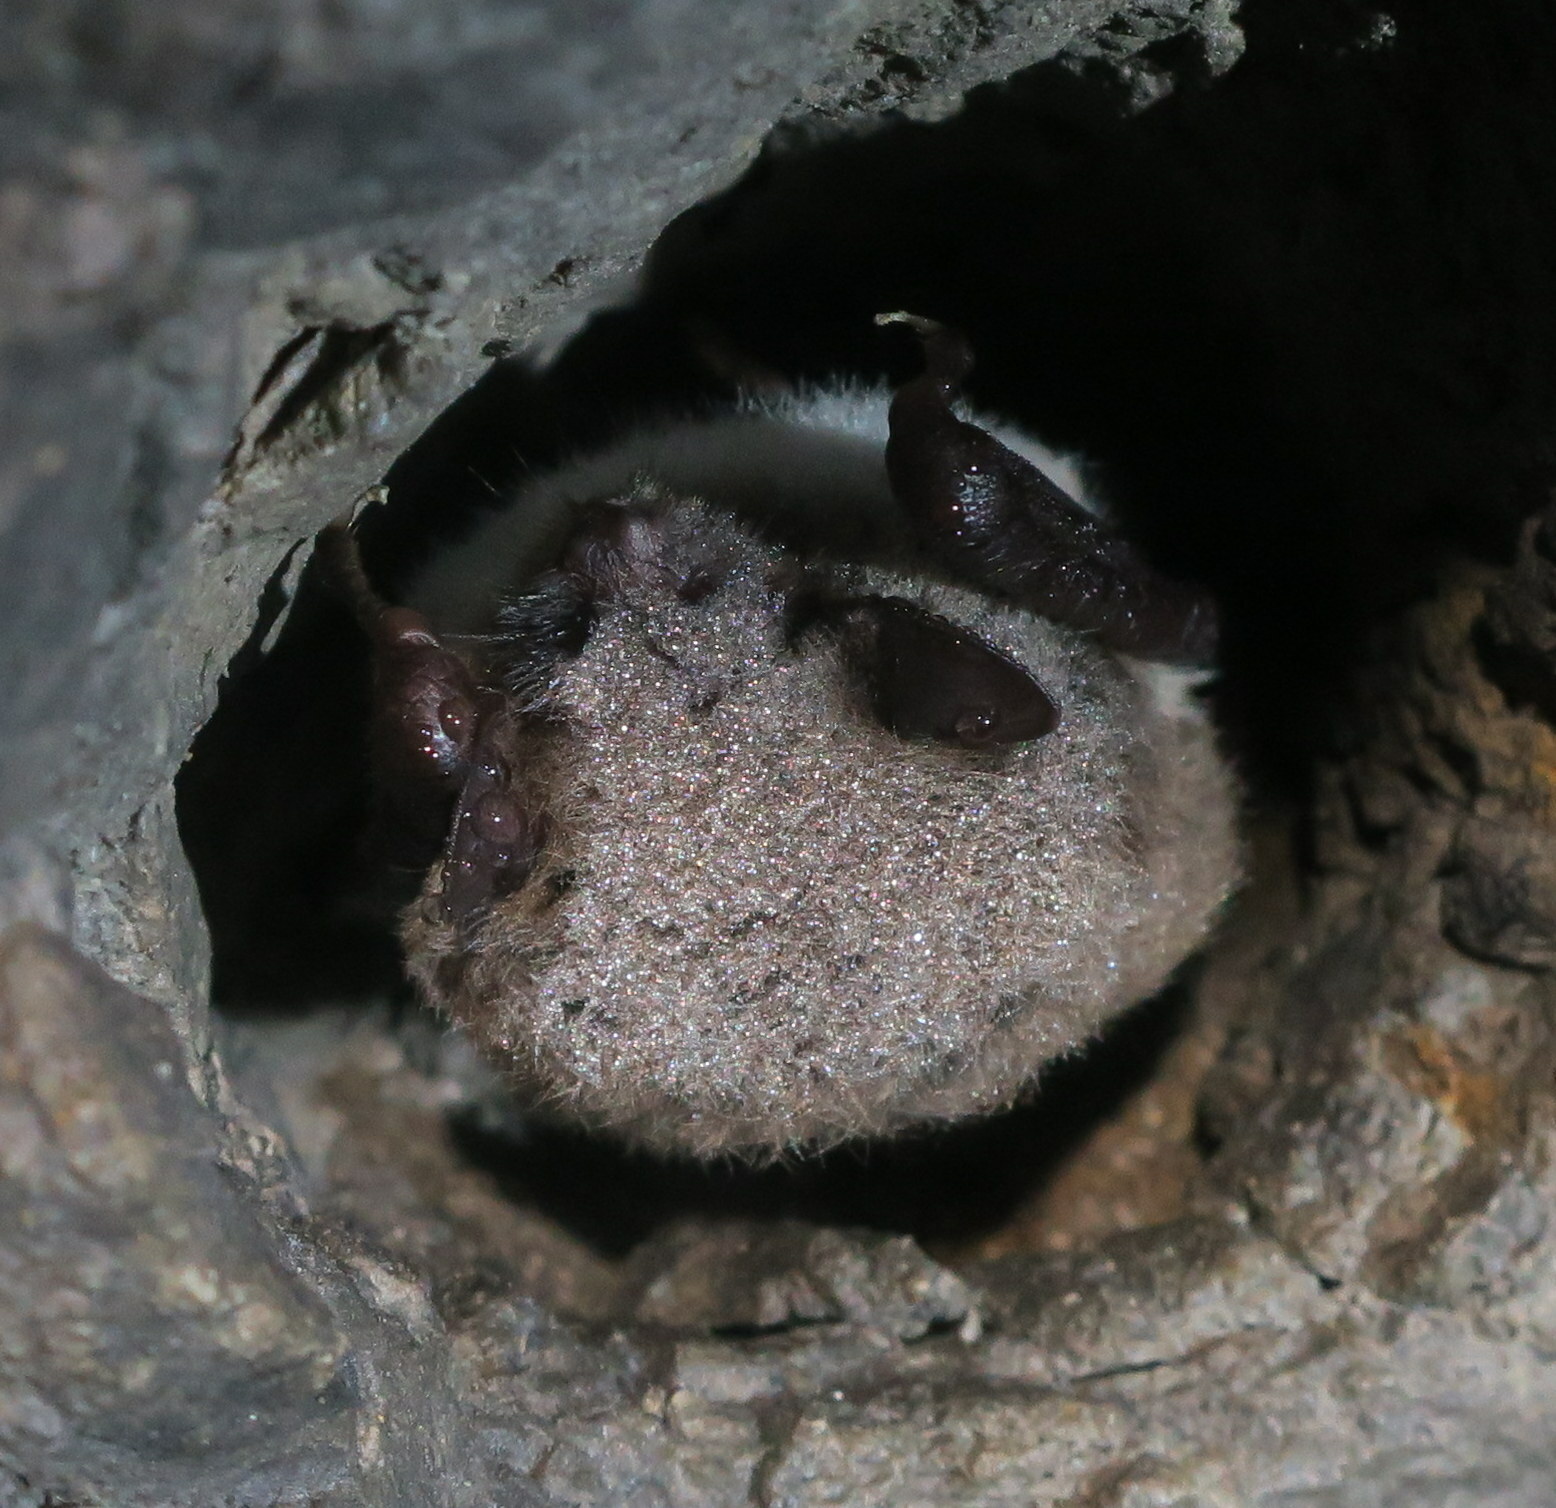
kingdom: Animalia
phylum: Chordata
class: Mammalia
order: Chiroptera
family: Vespertilionidae
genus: Myotis
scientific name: Myotis daubentonii
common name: Daubenton's myotis
